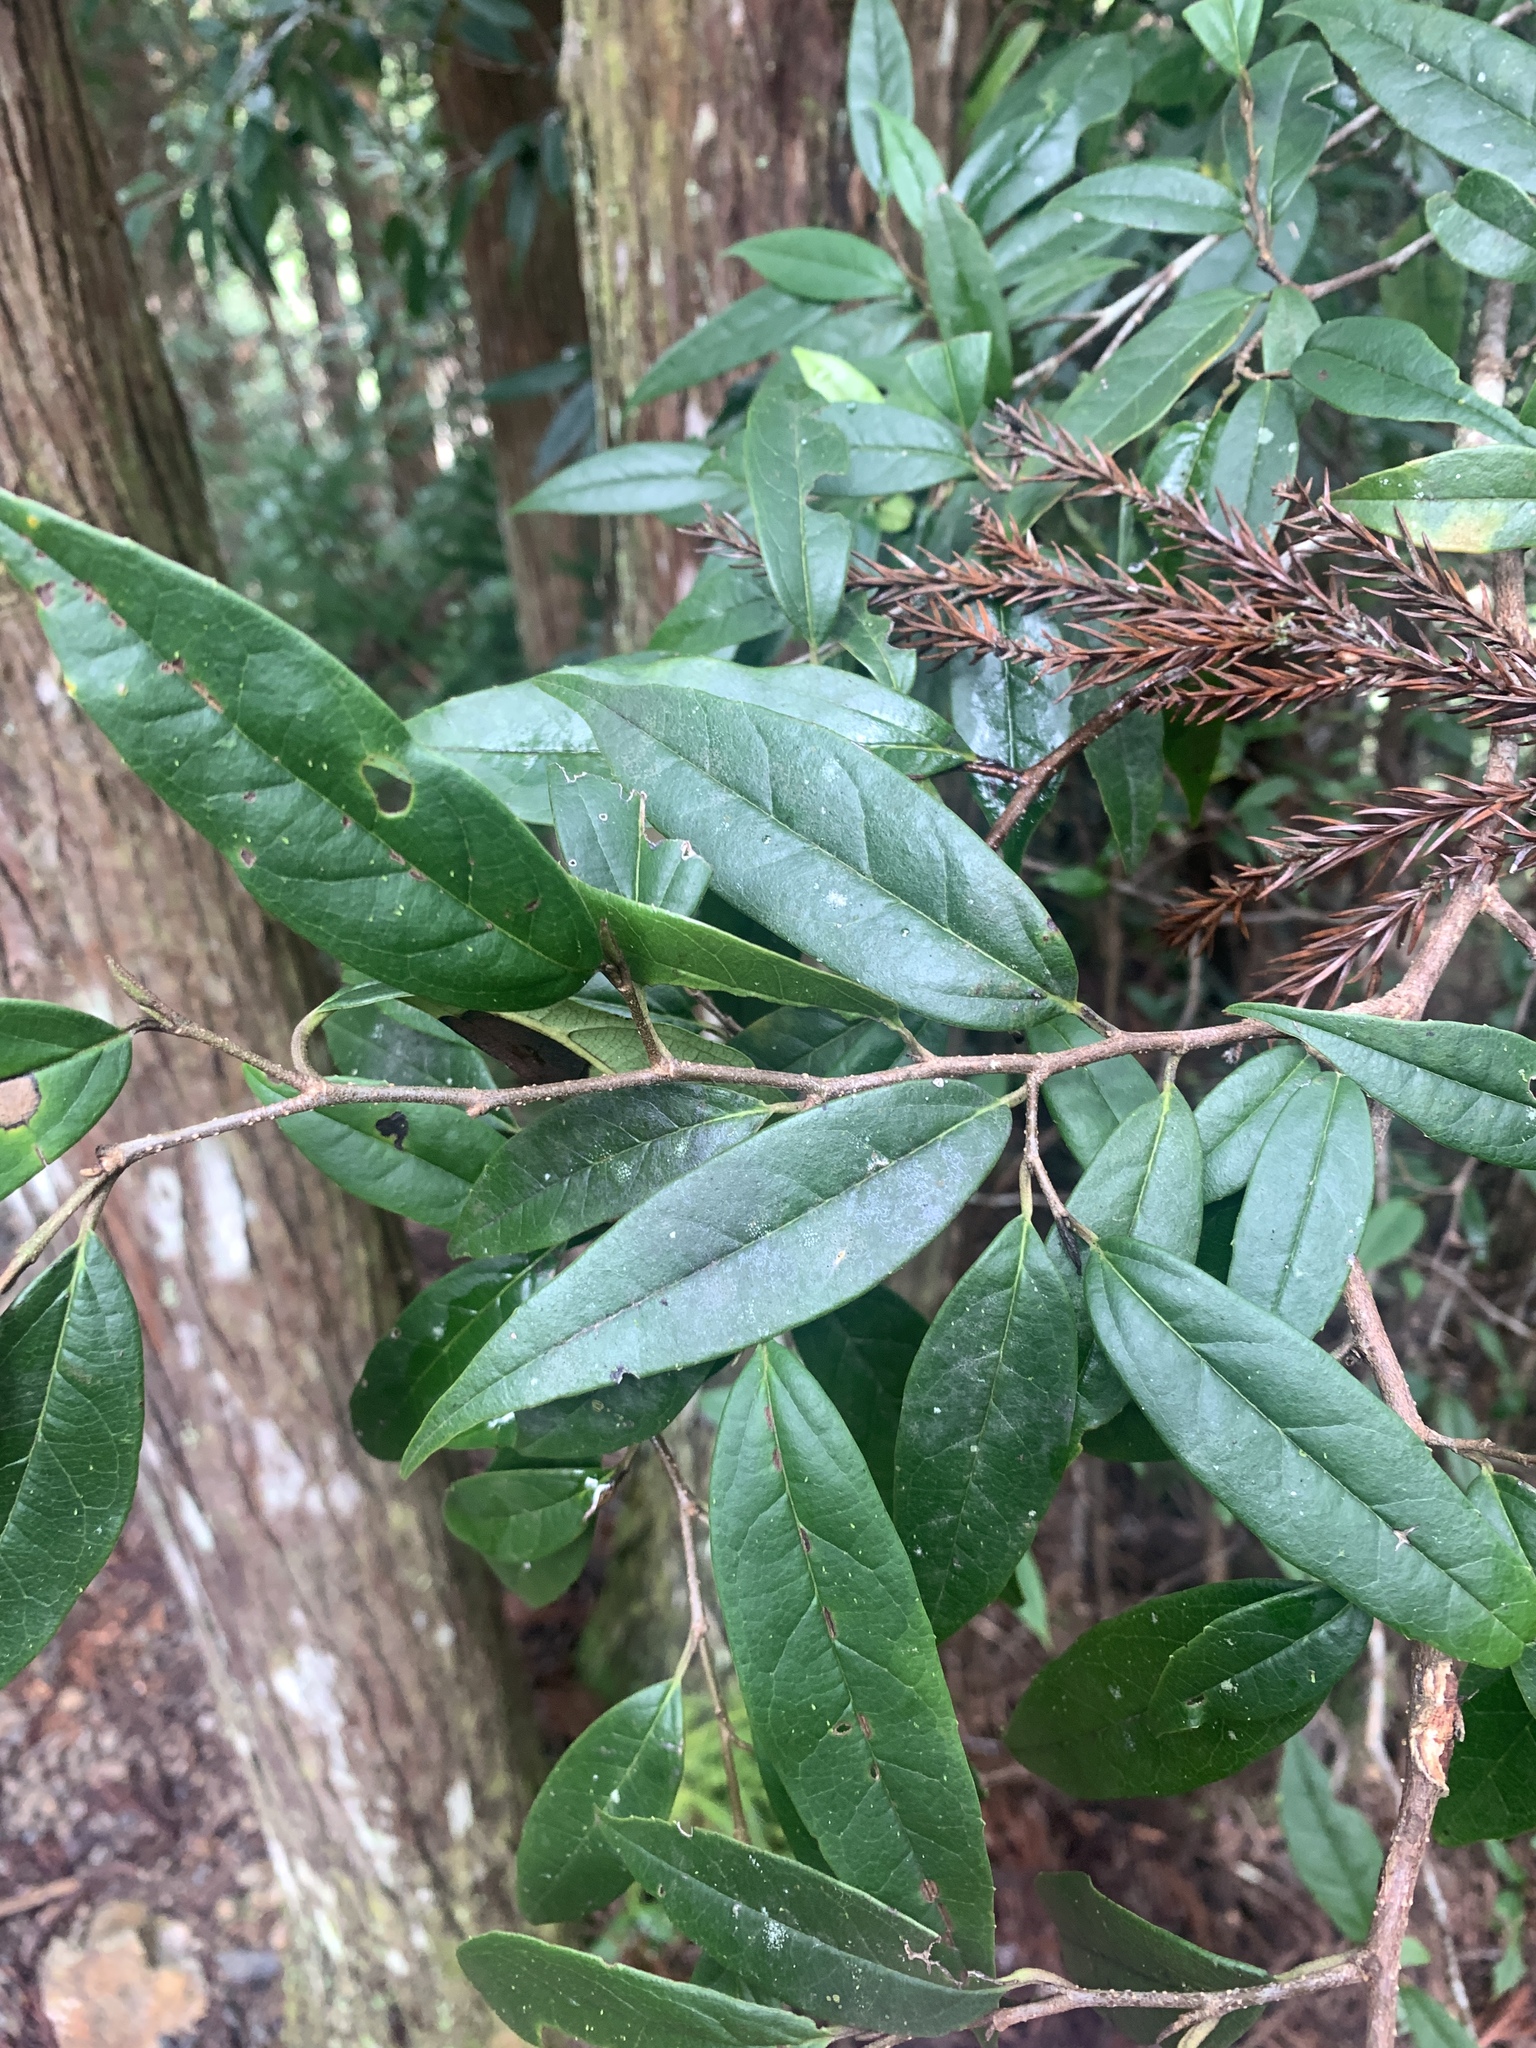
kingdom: Plantae
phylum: Tracheophyta
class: Magnoliopsida
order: Saxifragales
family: Hamamelidaceae
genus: Sycopsis
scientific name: Sycopsis sinensis
